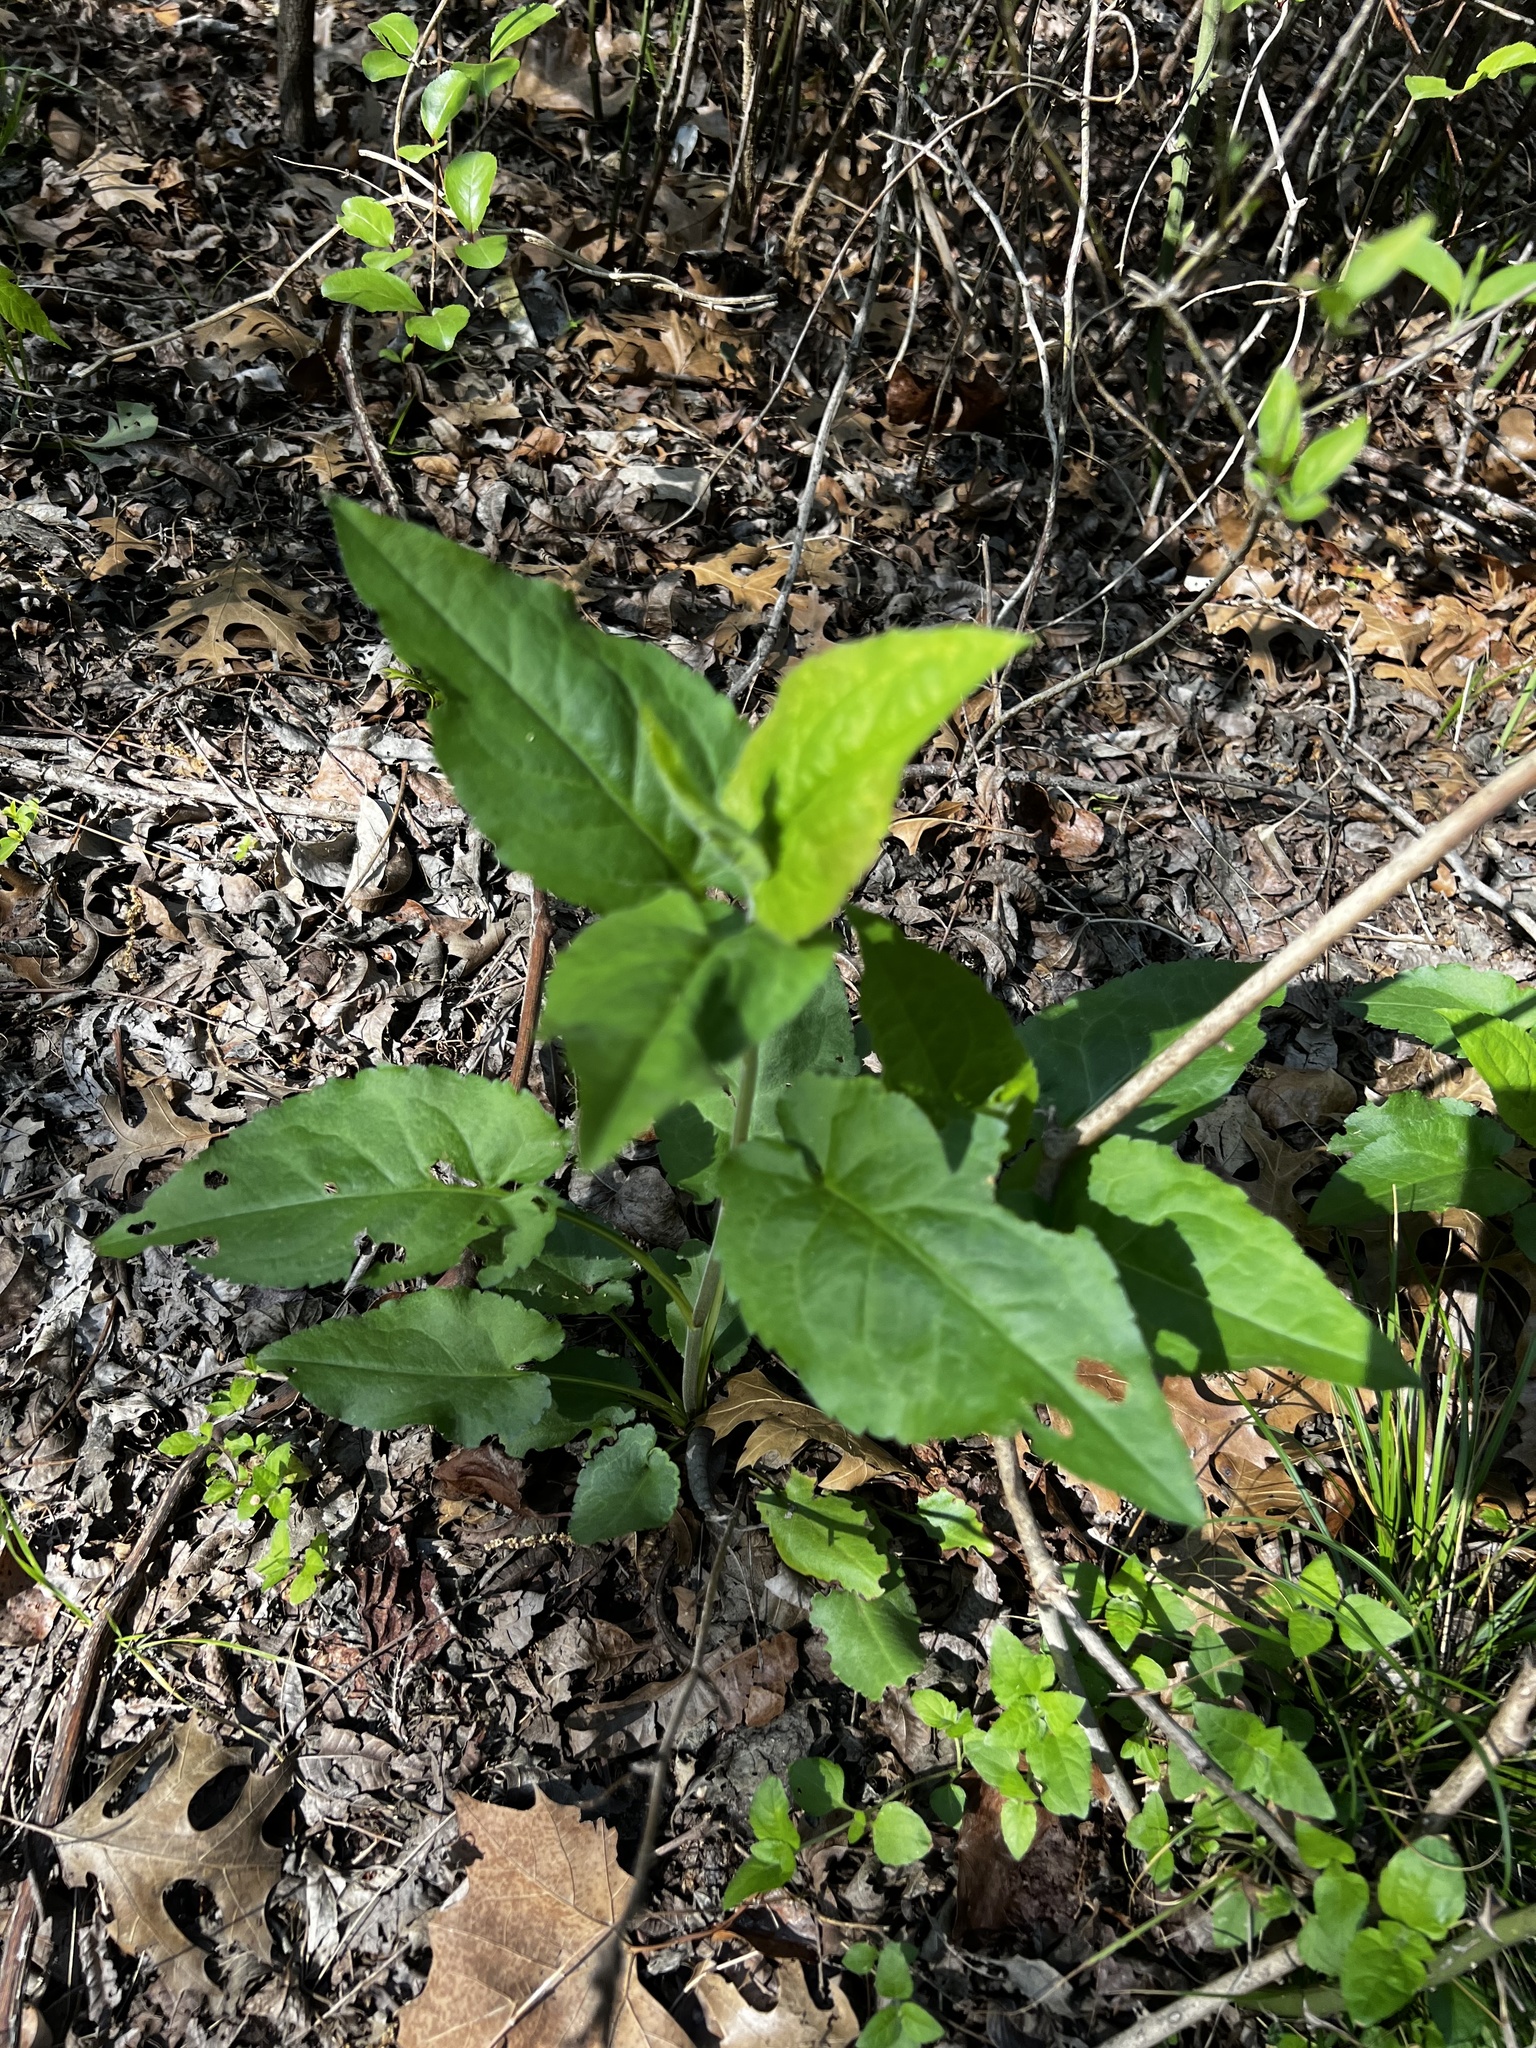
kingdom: Plantae
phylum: Tracheophyta
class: Magnoliopsida
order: Asterales
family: Asteraceae
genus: Symphyotrichum
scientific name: Symphyotrichum drummondii
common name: Drummond's aster
